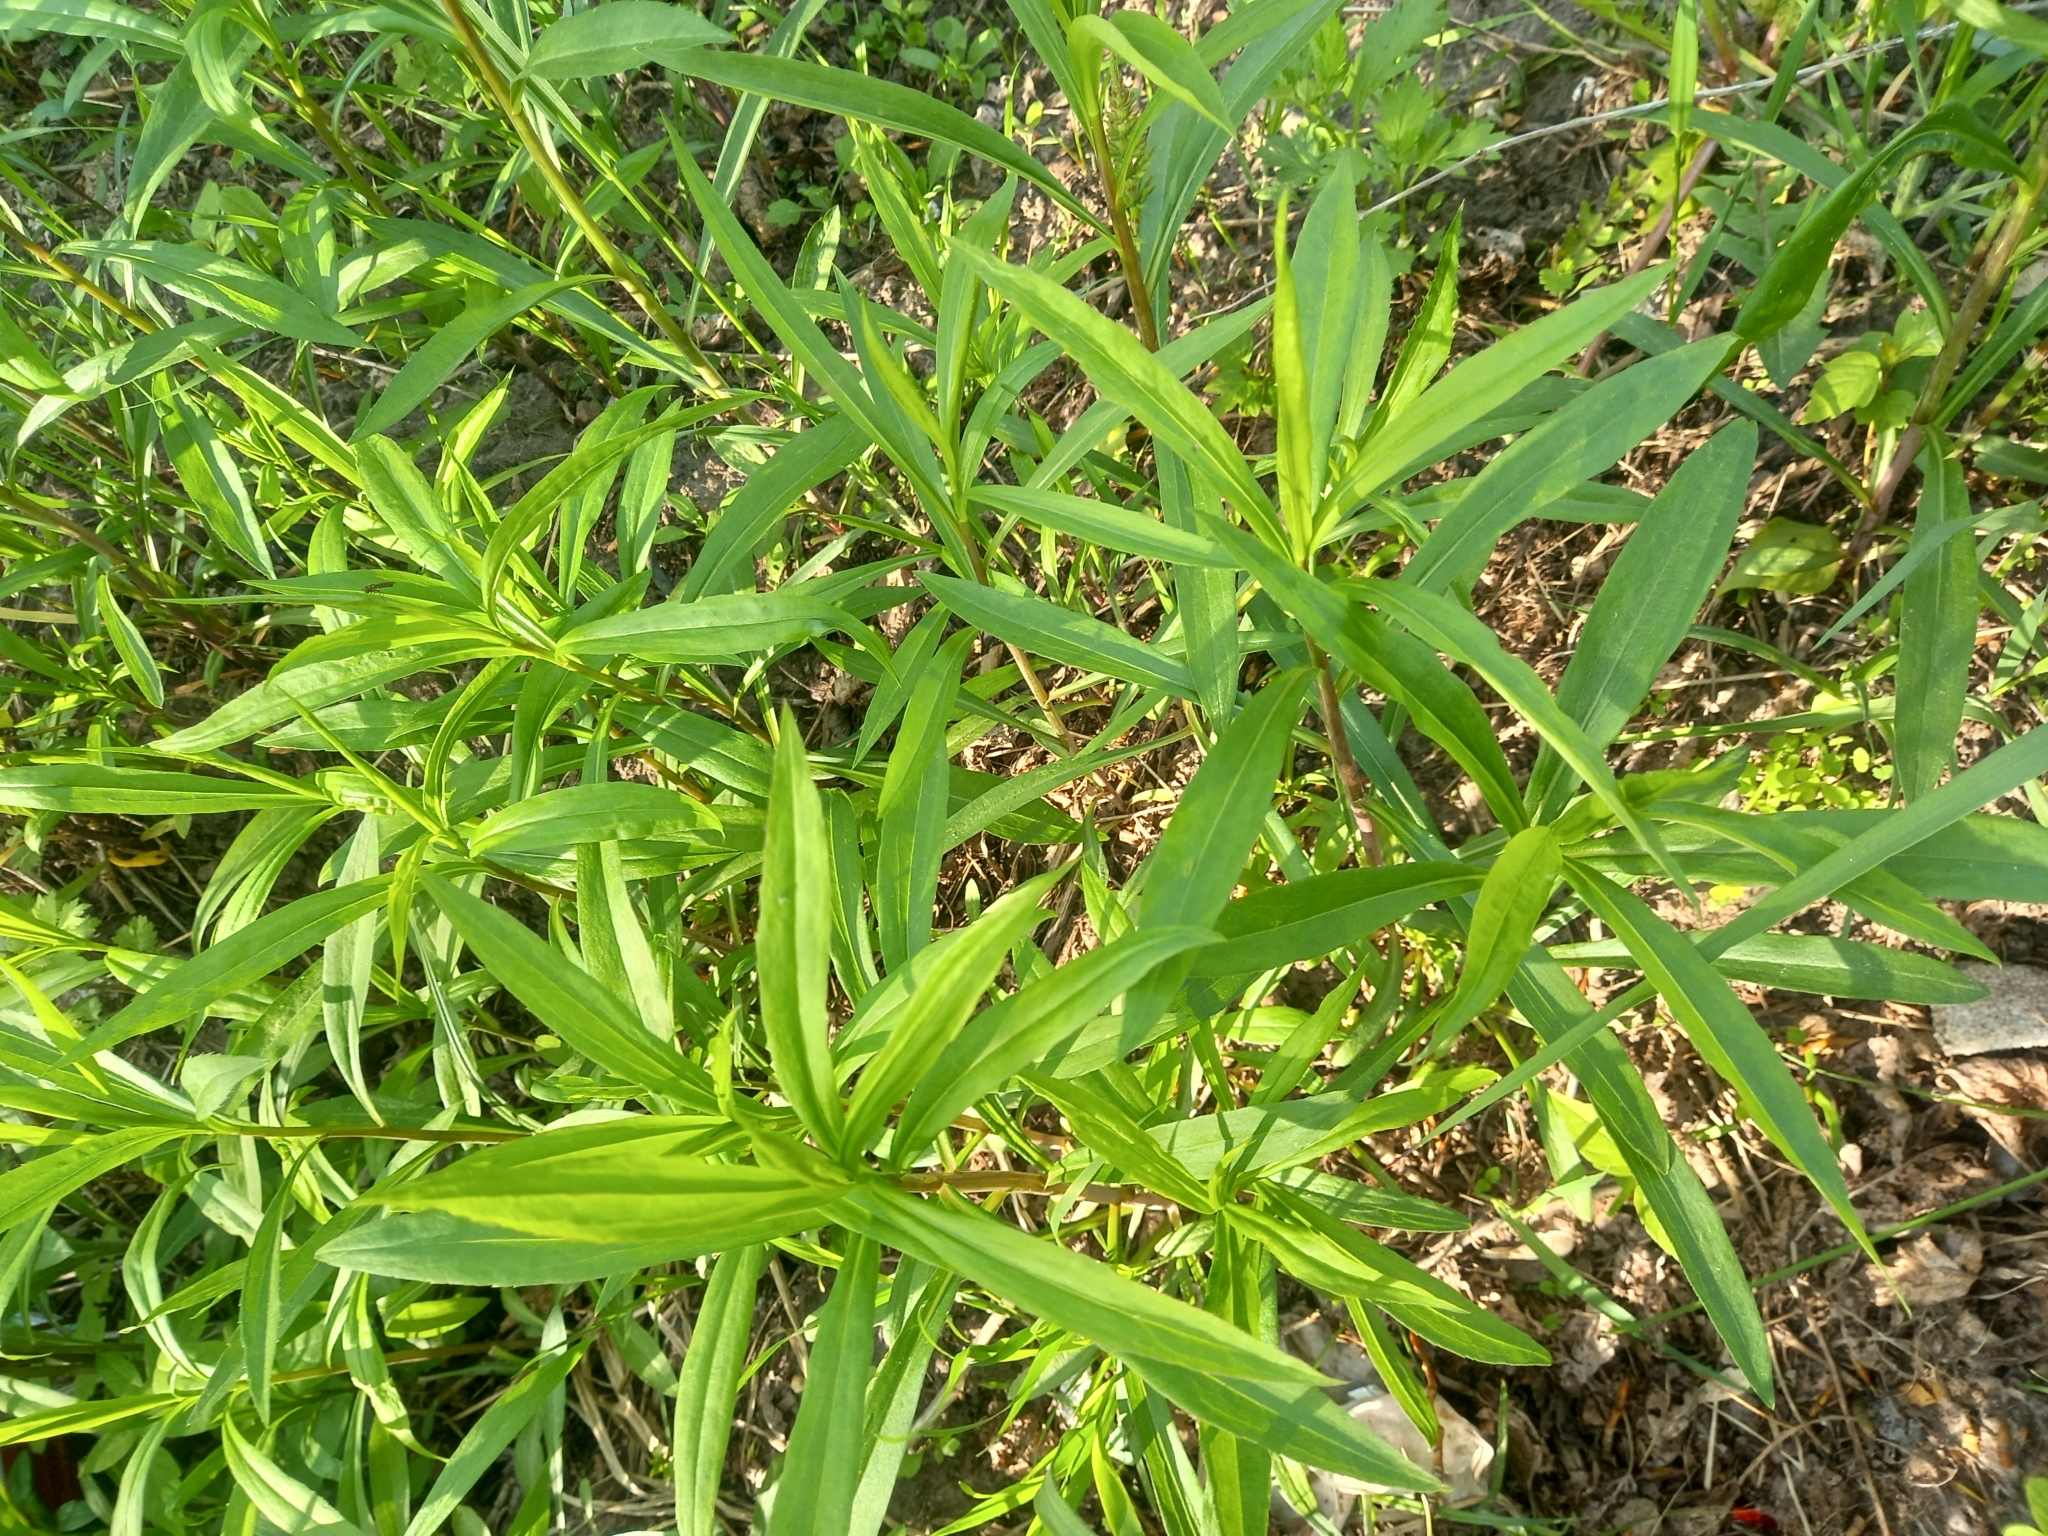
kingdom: Plantae
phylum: Tracheophyta
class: Magnoliopsida
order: Asterales
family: Asteraceae
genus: Solidago
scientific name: Solidago gigantea
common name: Giant goldenrod
